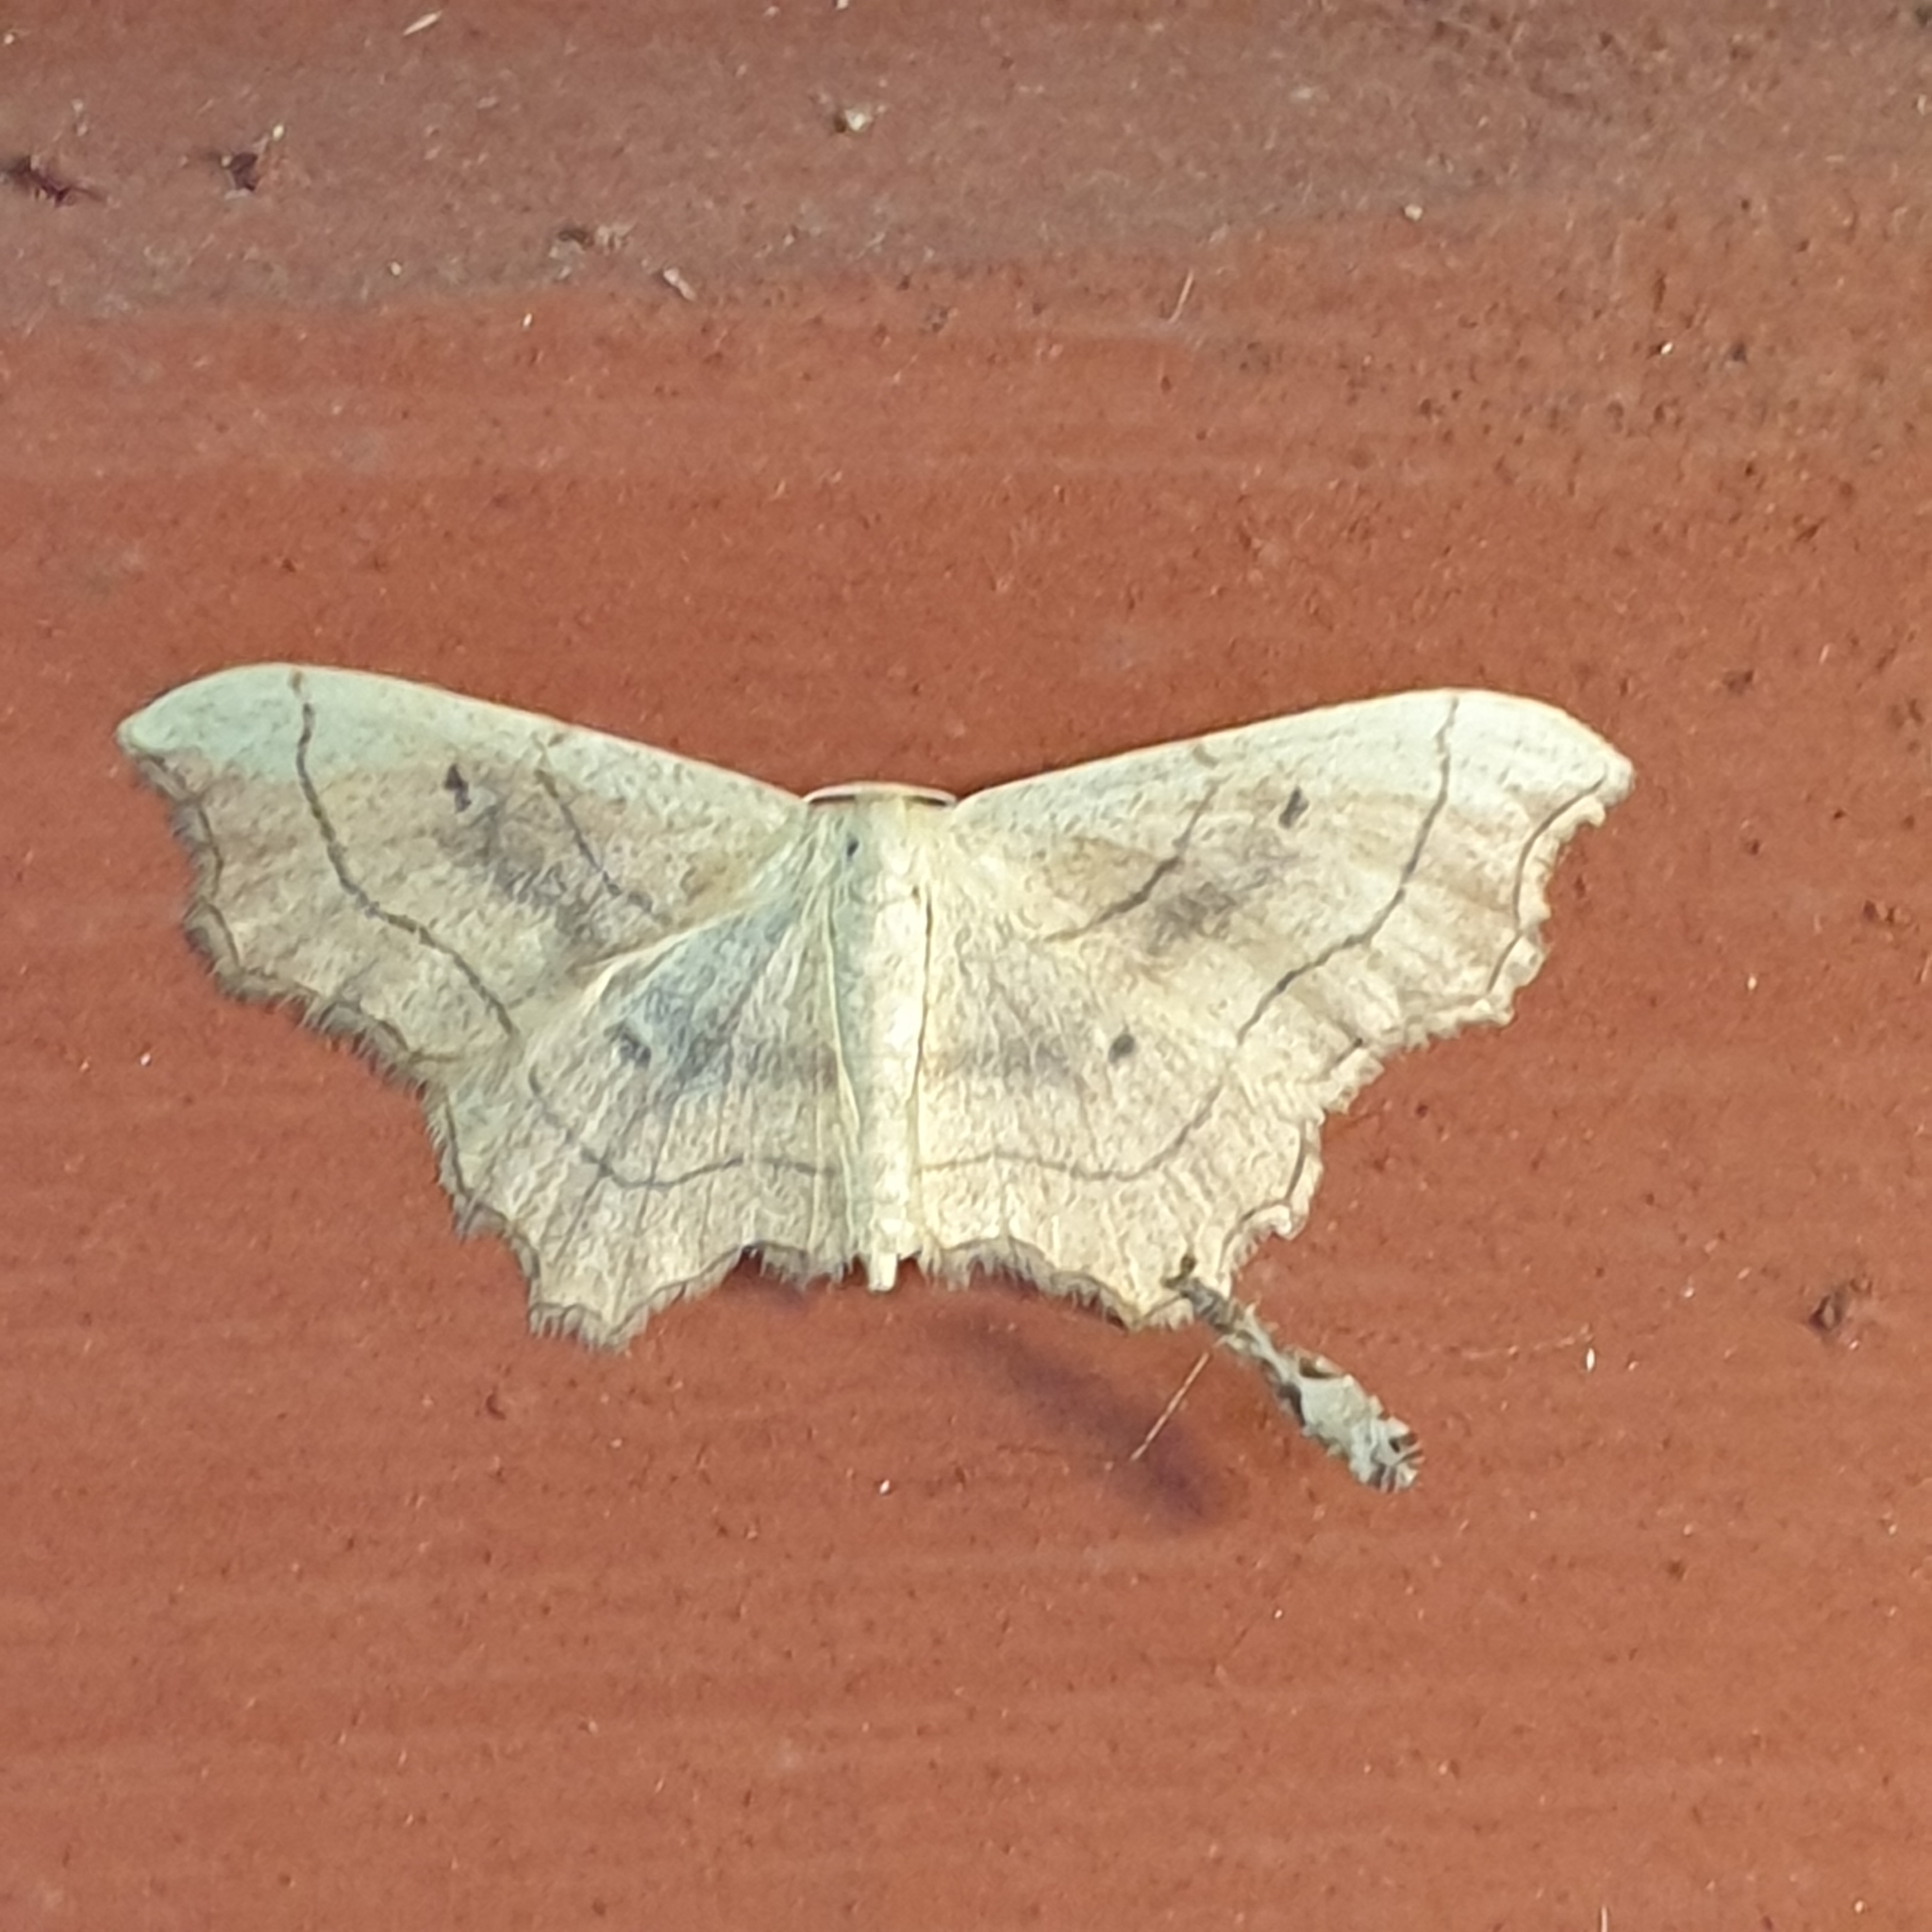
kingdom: Animalia
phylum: Arthropoda
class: Insecta
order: Lepidoptera
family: Geometridae
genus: Idaea
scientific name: Idaea emarginata
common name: Small scallop
